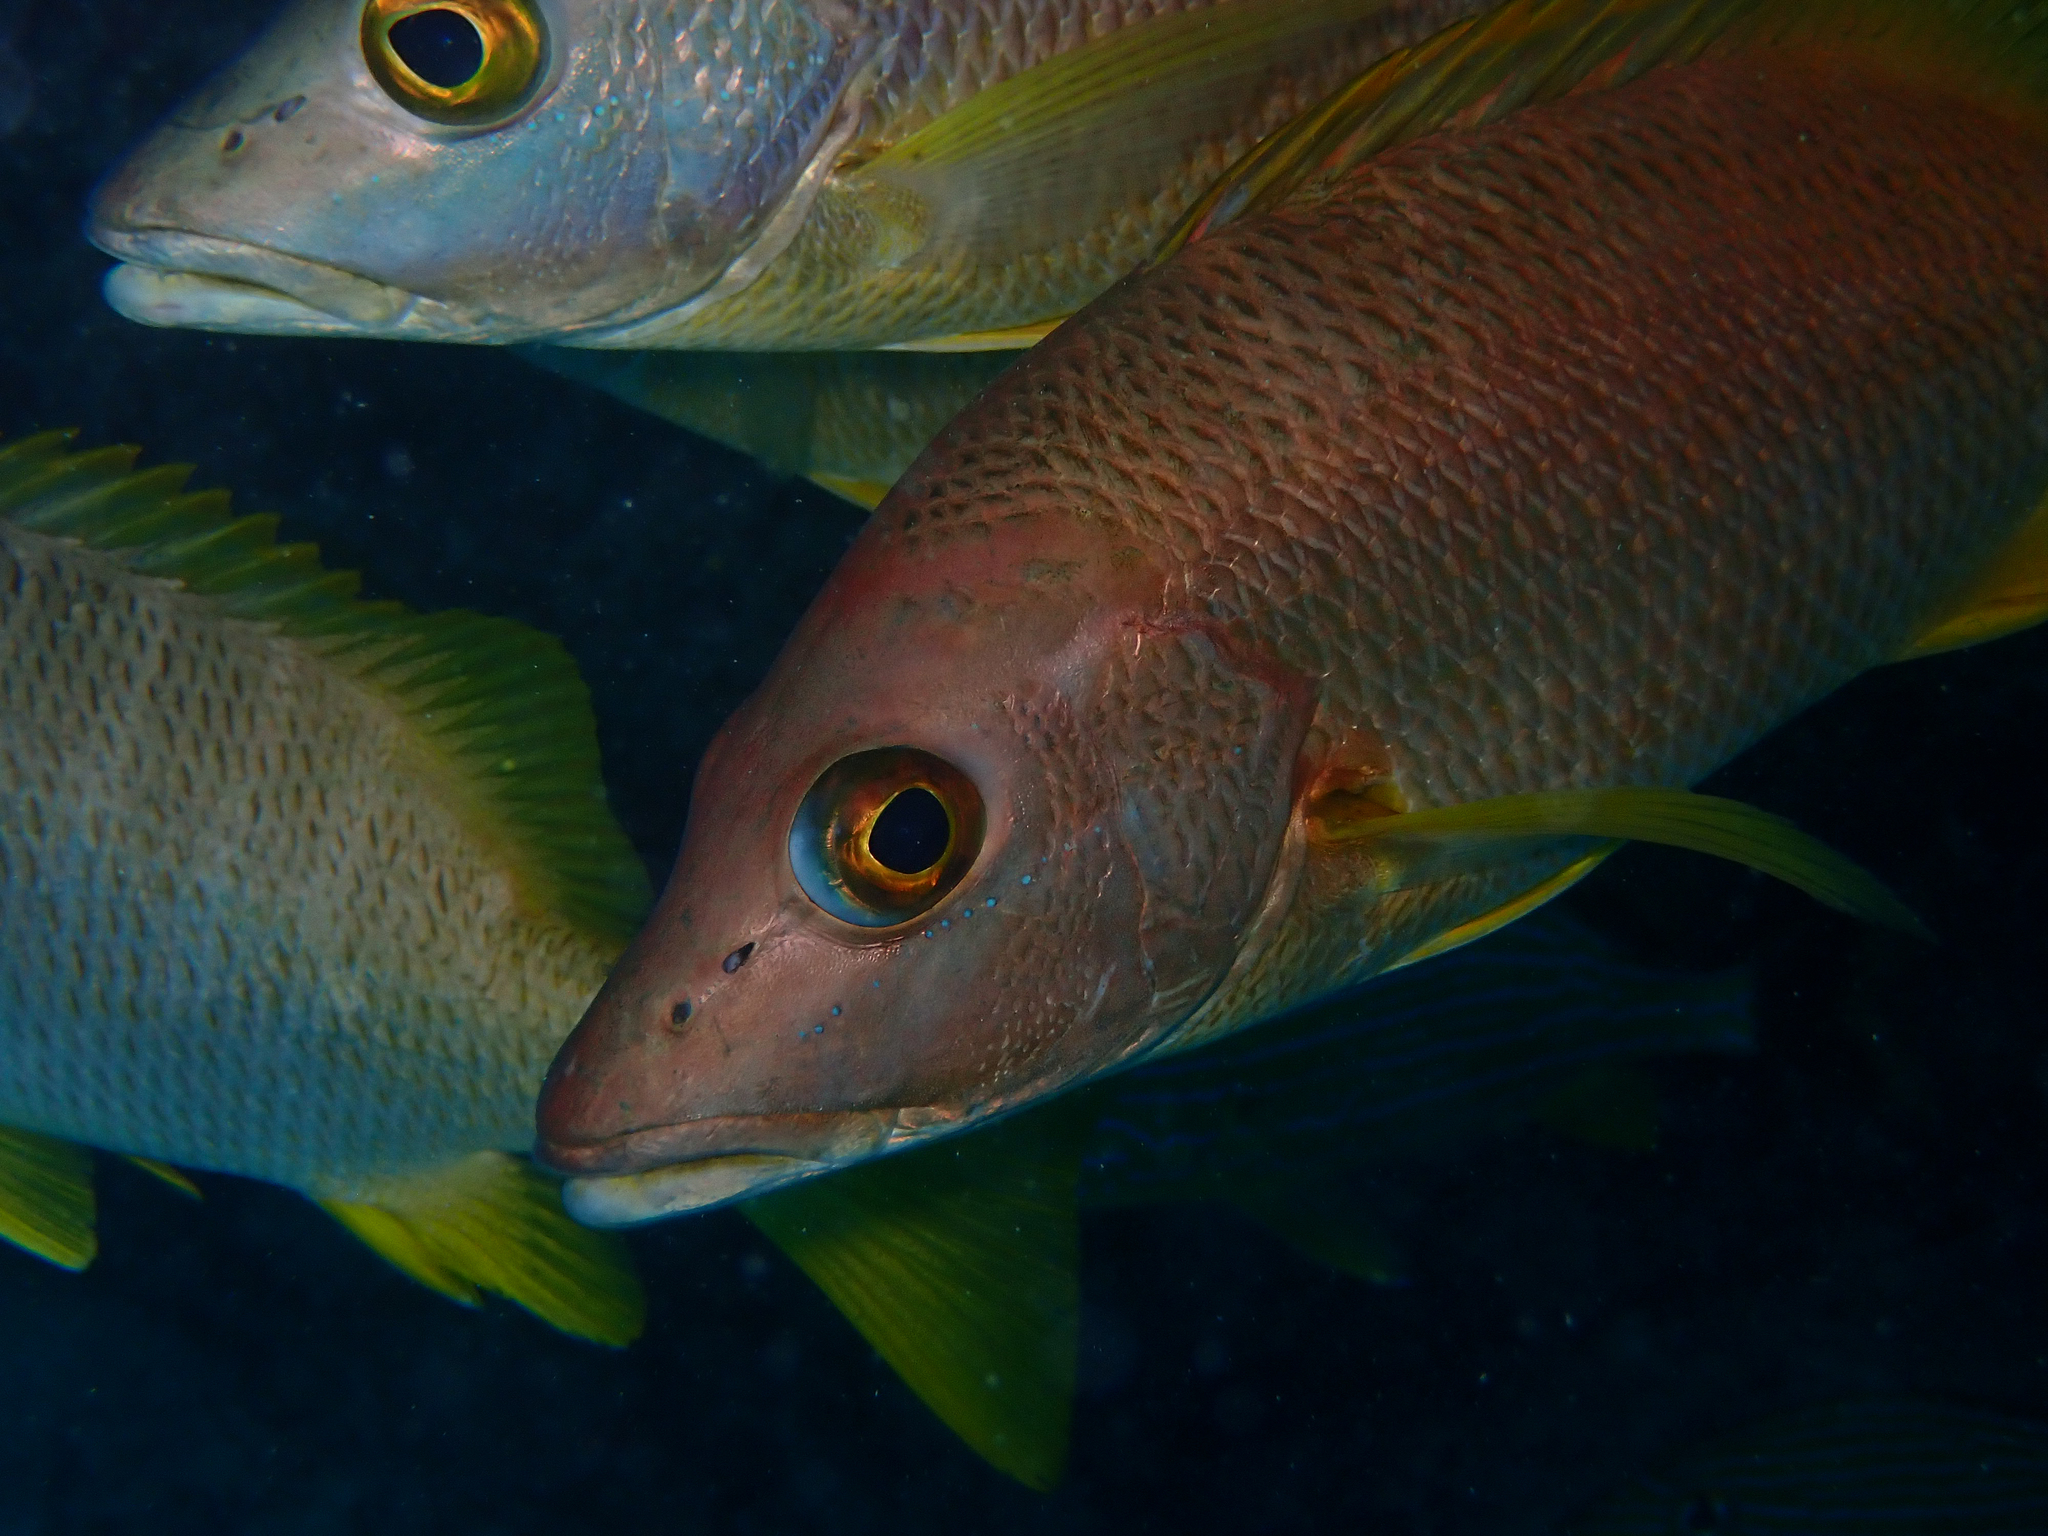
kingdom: Animalia
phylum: Chordata
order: Perciformes
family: Lutjanidae
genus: Lutjanus
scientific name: Lutjanus apodus
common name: Schoolmaster
